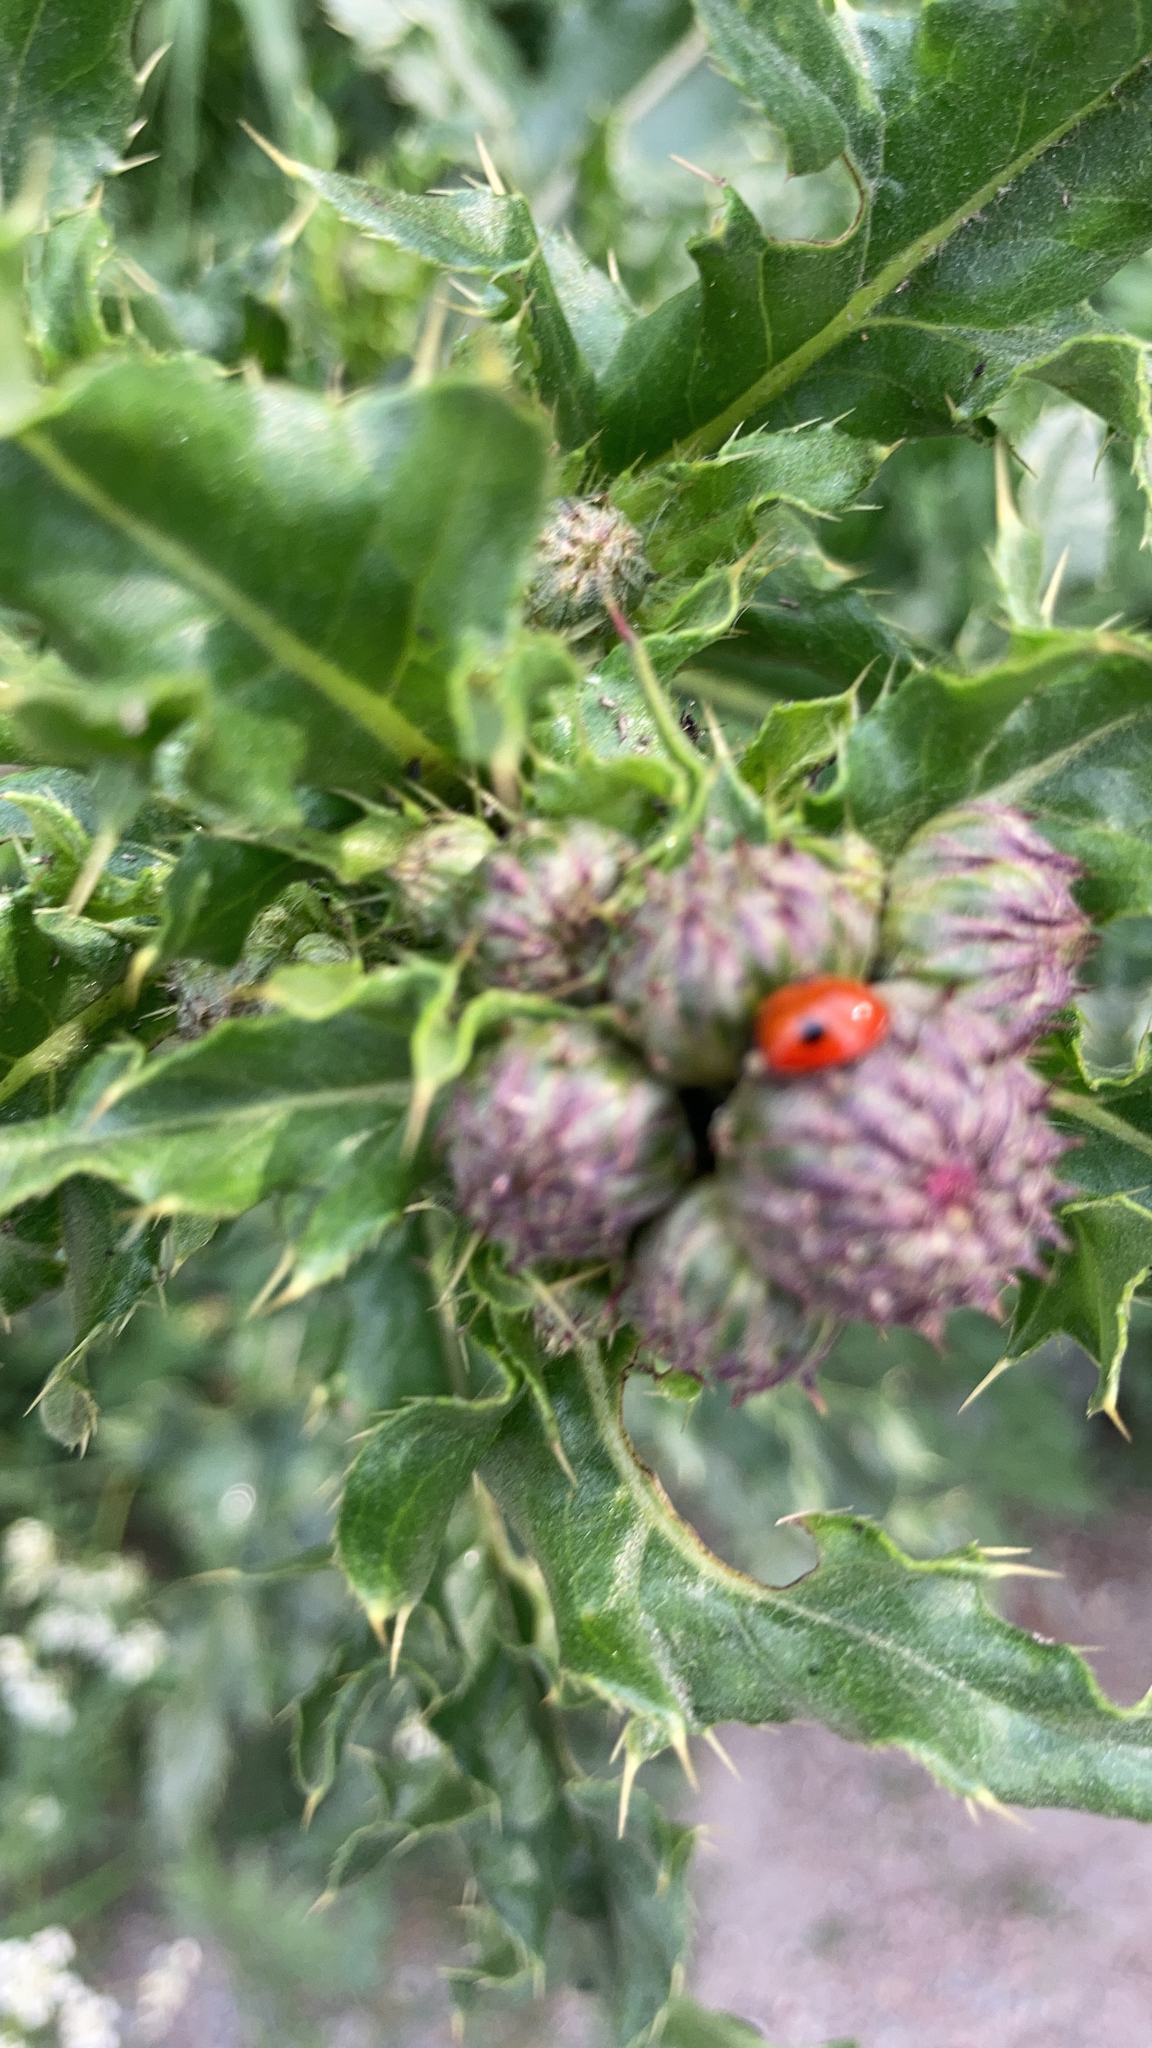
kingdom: Animalia
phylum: Arthropoda
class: Insecta
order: Coleoptera
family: Coccinellidae
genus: Adalia
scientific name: Adalia bipunctata
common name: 2-spot ladybird
